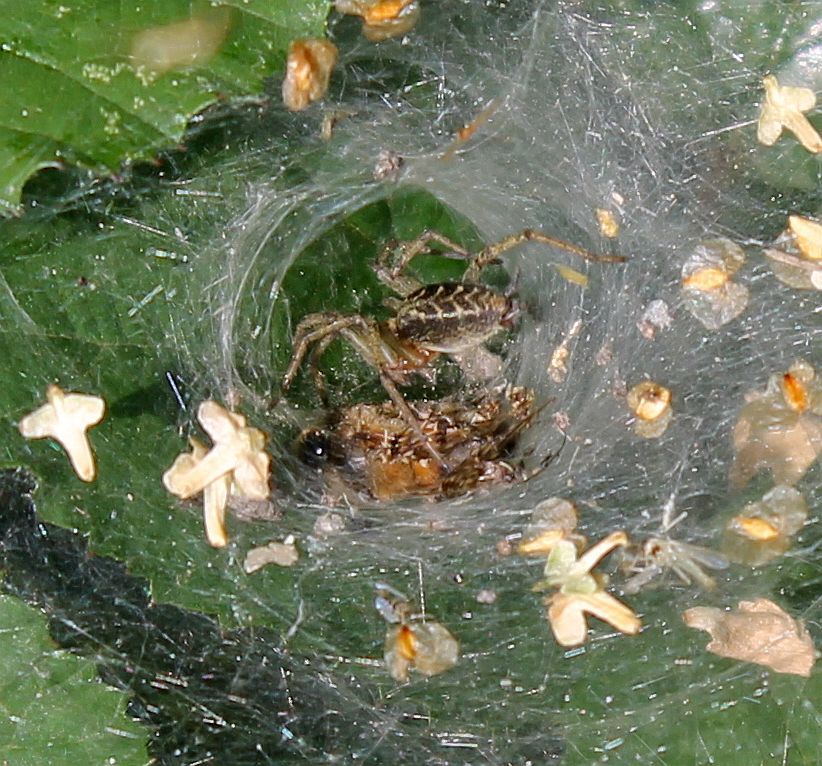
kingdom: Animalia
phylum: Arthropoda
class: Arachnida
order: Araneae
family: Agelenidae
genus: Agelena
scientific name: Agelena labyrinthica
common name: Labyrinth spider
